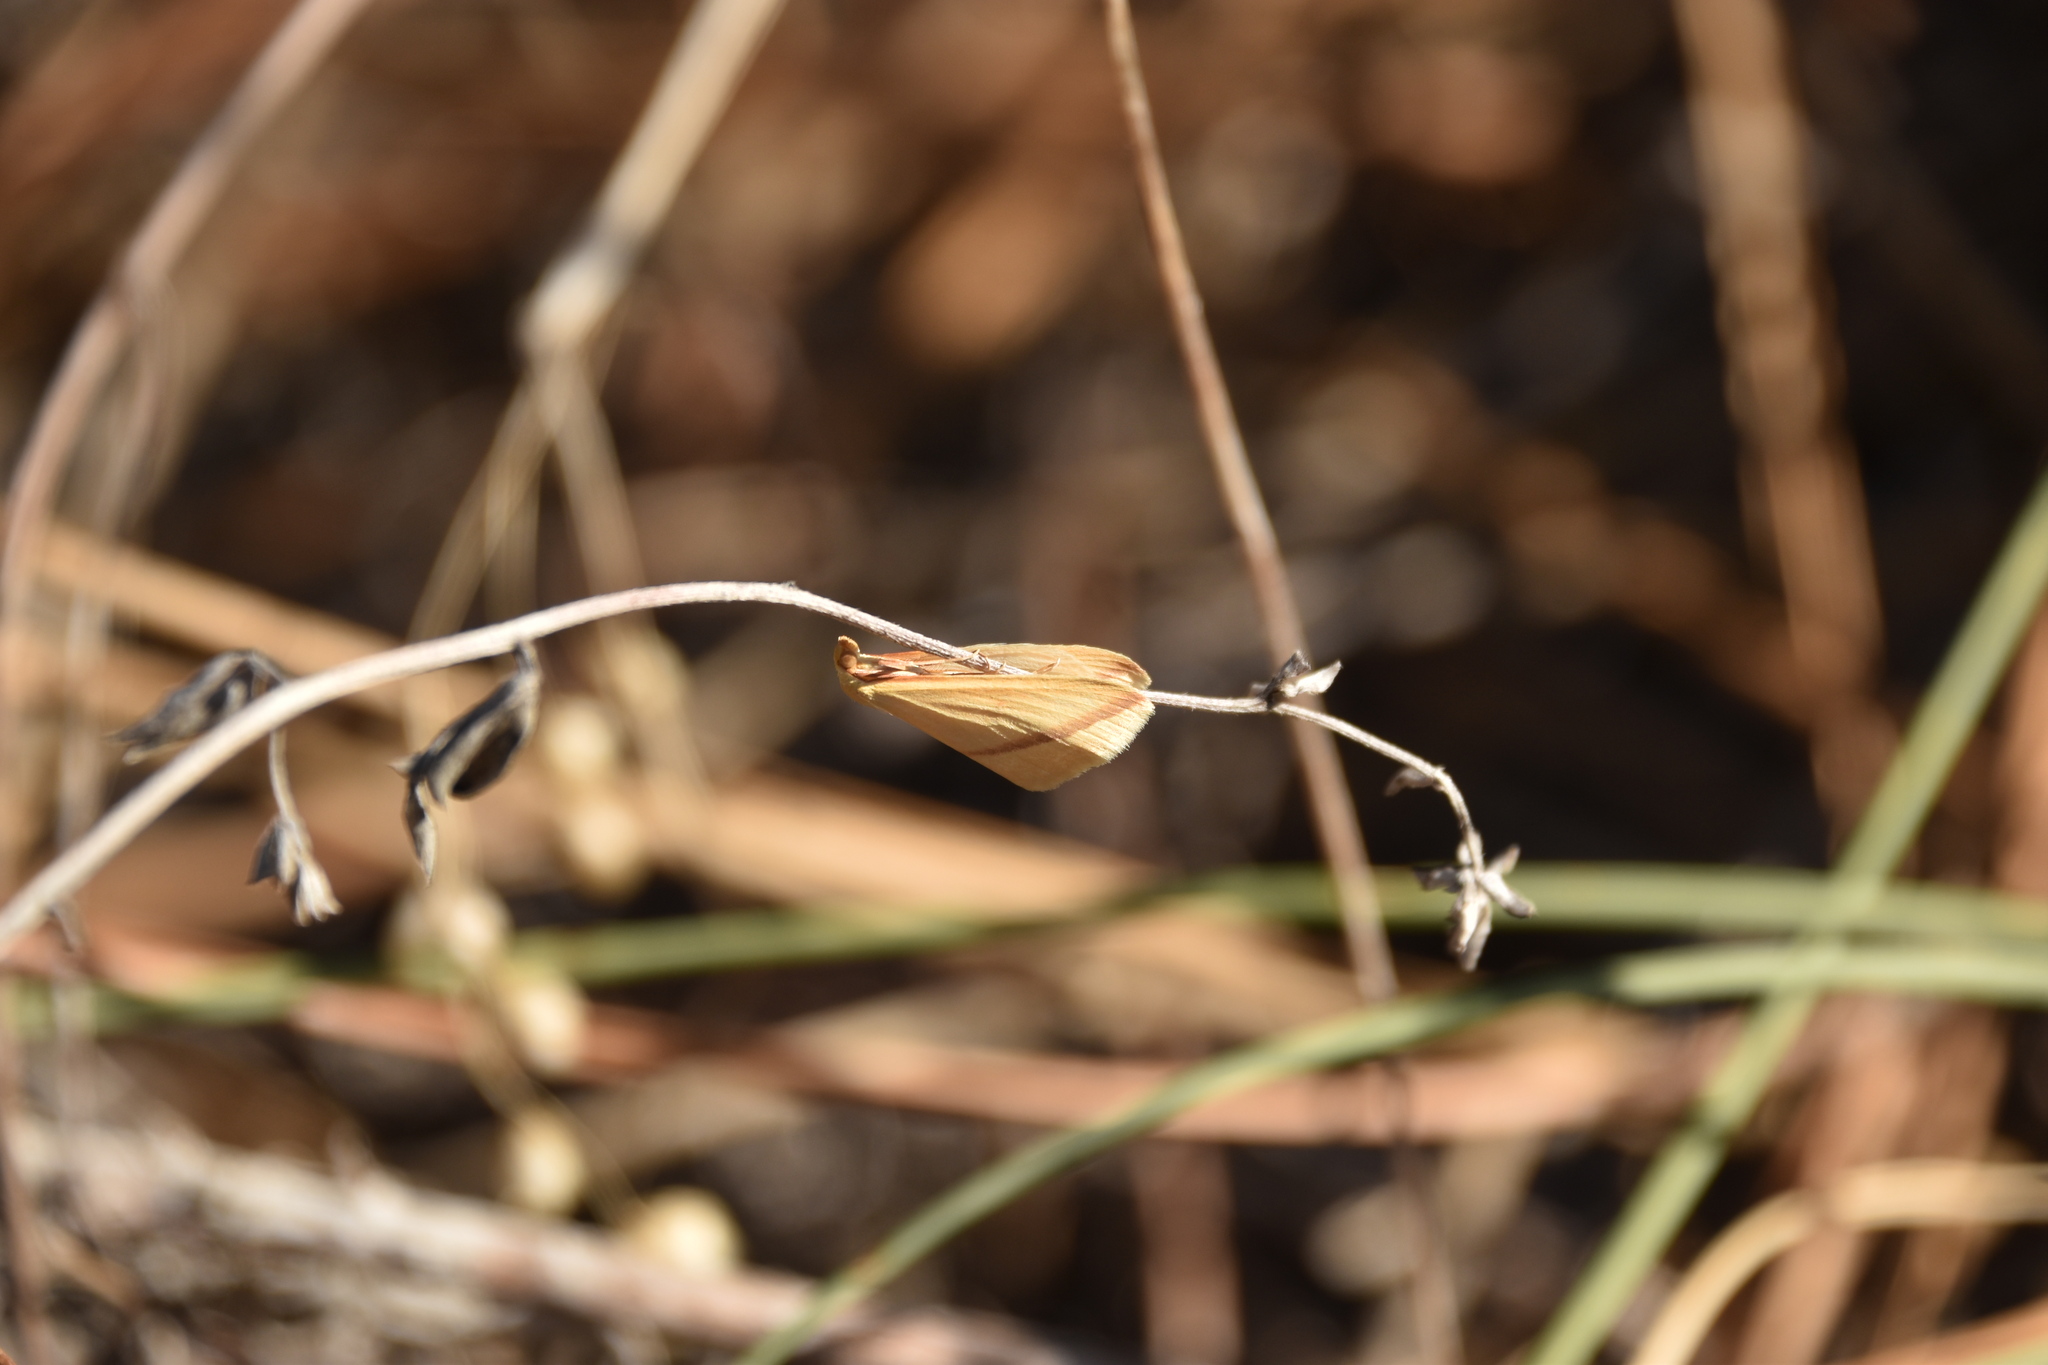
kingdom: Animalia
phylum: Arthropoda
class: Insecta
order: Lepidoptera
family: Geometridae
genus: Rhodometra
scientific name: Rhodometra sacraria
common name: Vestal
